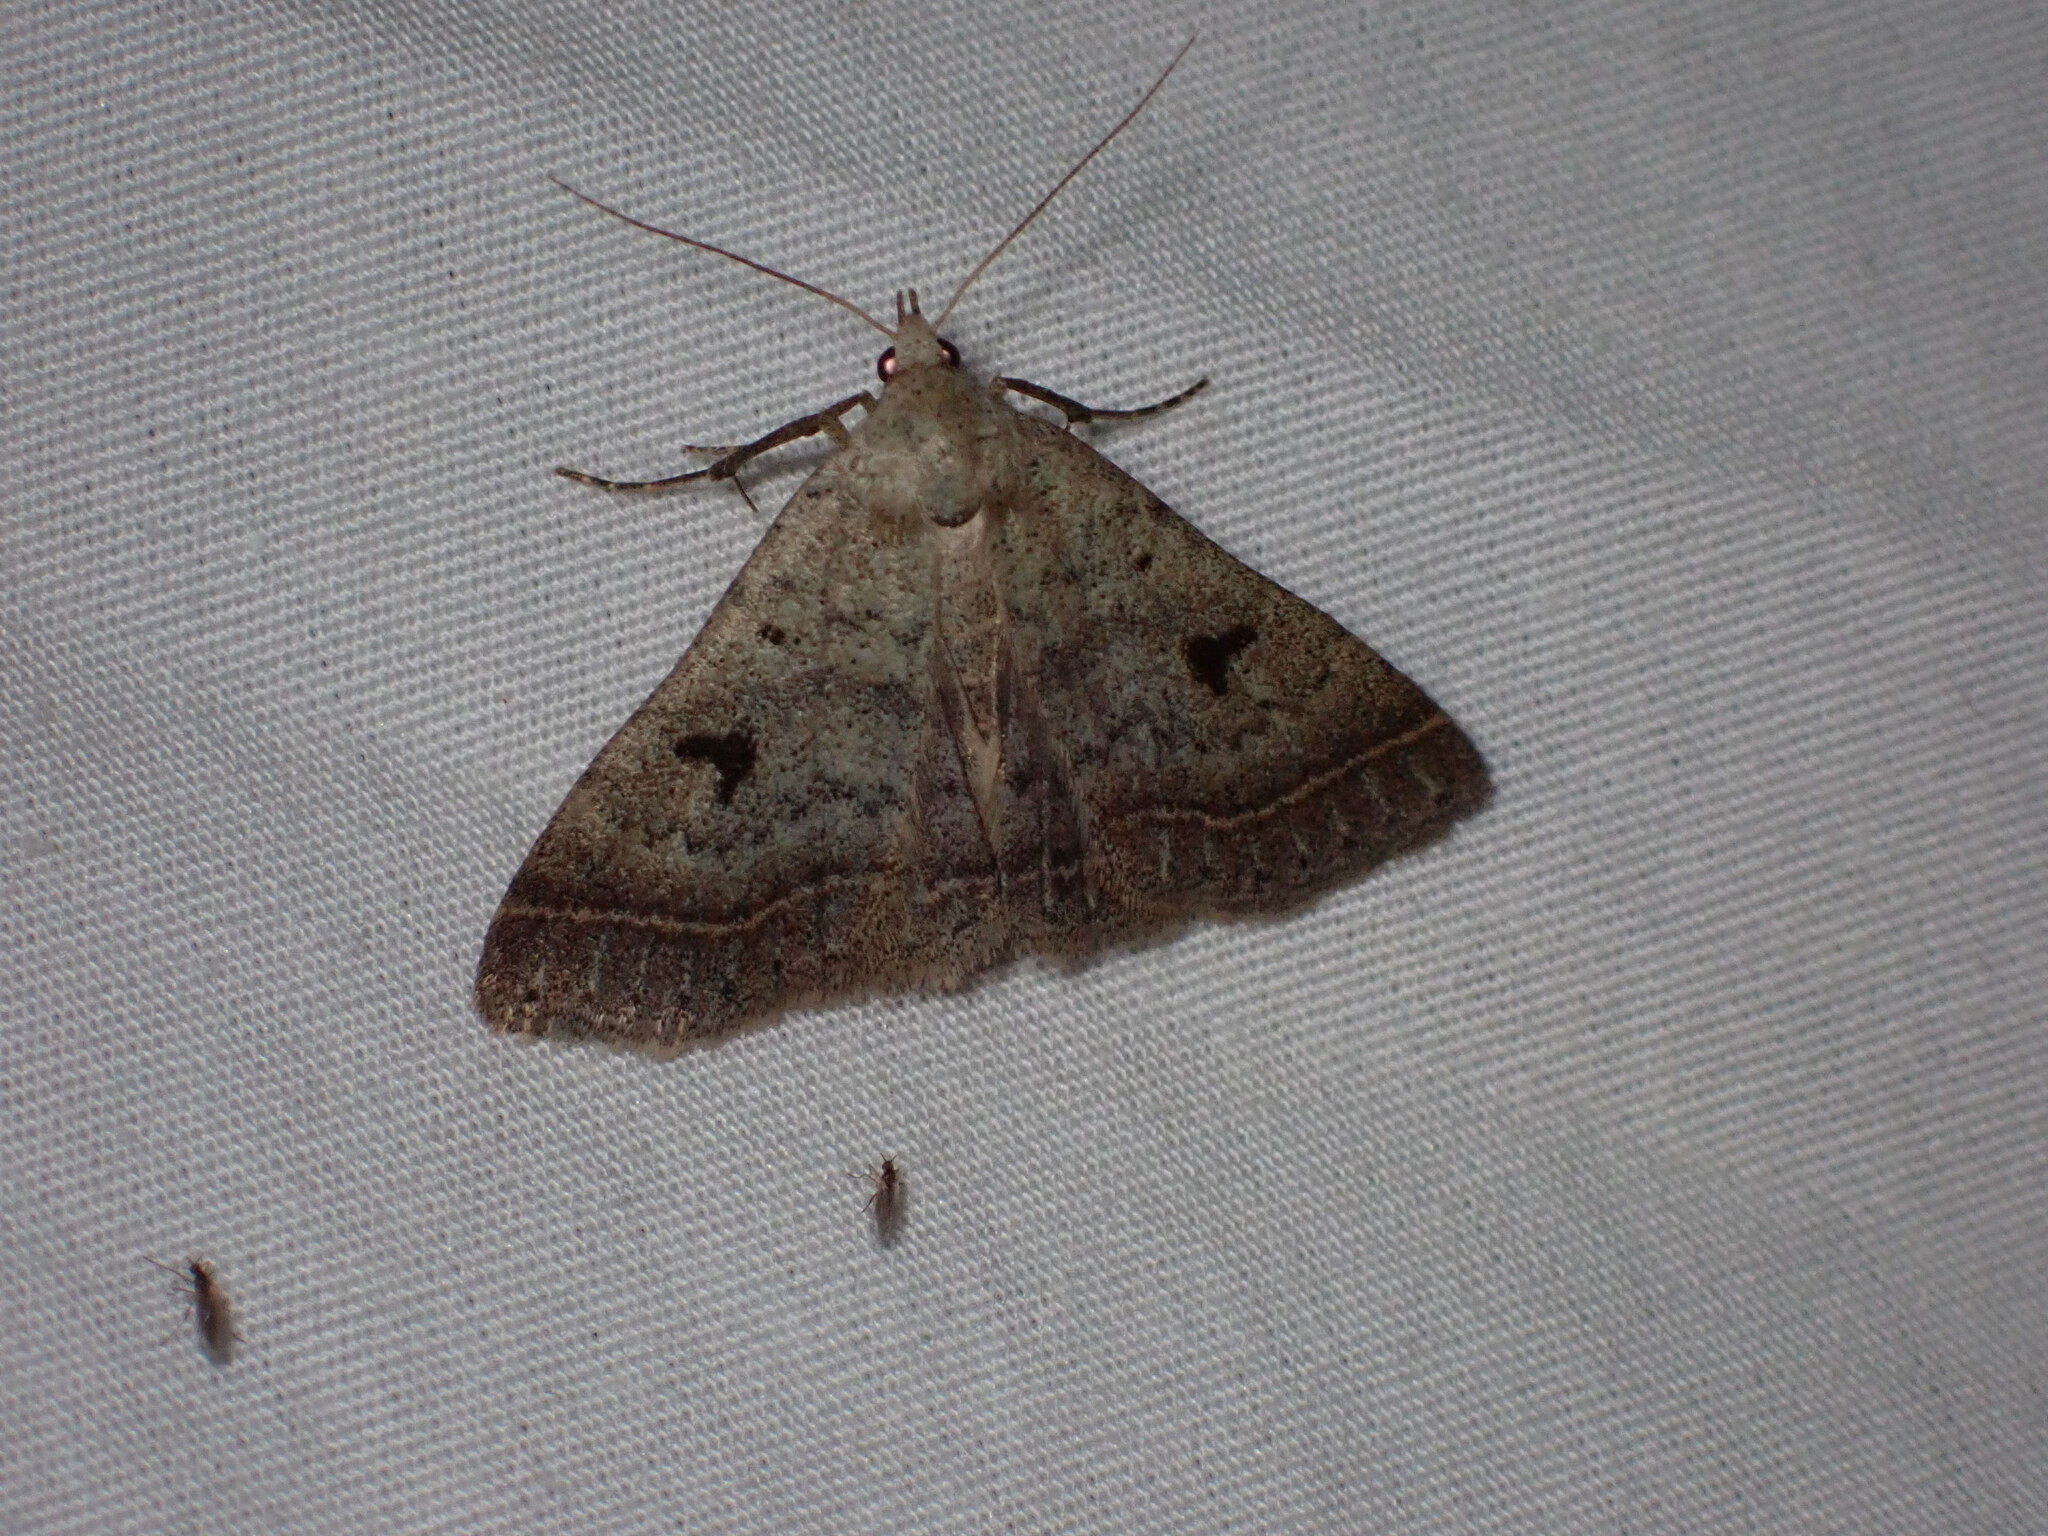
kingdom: Animalia
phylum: Arthropoda
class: Insecta
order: Lepidoptera
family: Erebidae
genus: Bleptina
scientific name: Bleptina caradrinalis
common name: Bent-winged owlet
